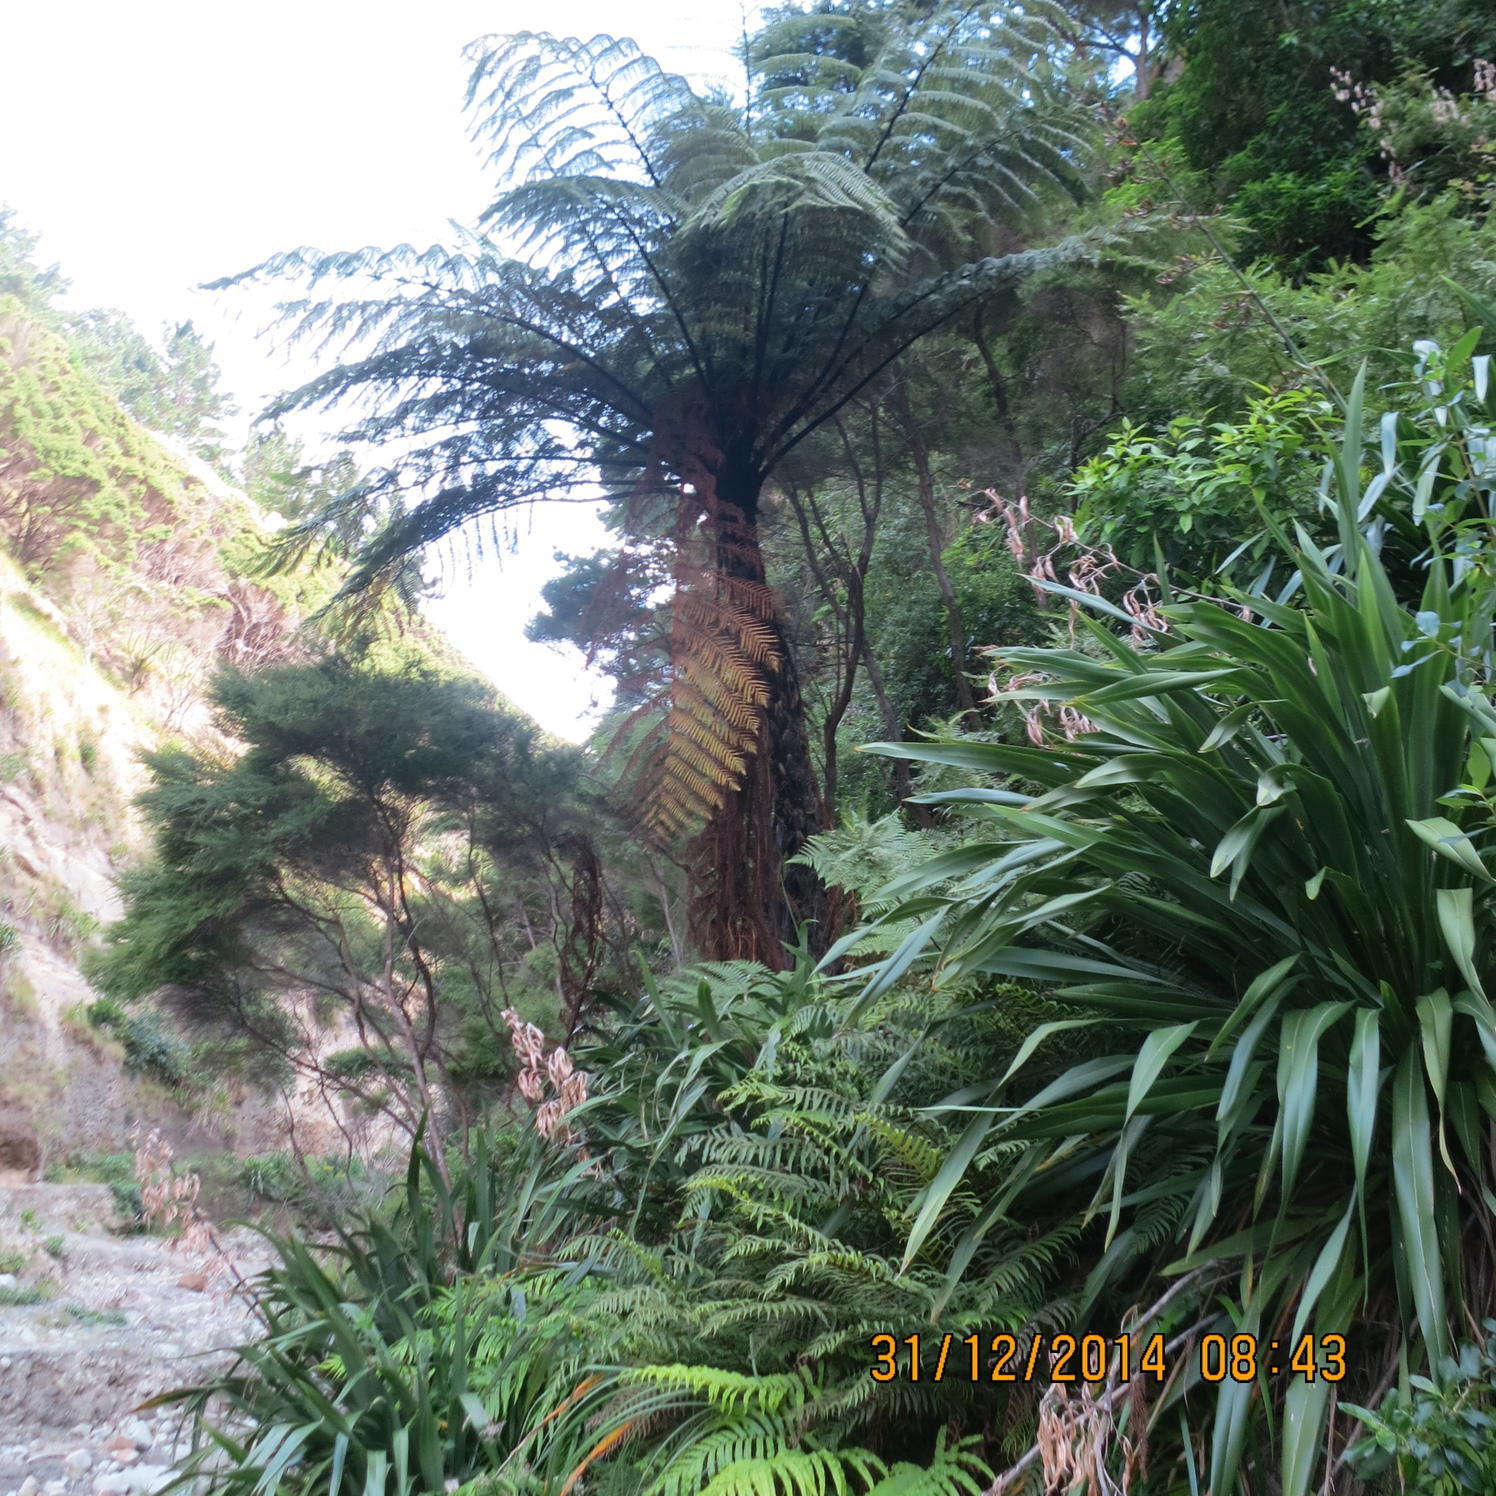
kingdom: Plantae
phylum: Tracheophyta
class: Polypodiopsida
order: Cyatheales
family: Cyatheaceae
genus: Sphaeropteris
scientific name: Sphaeropteris medullaris
